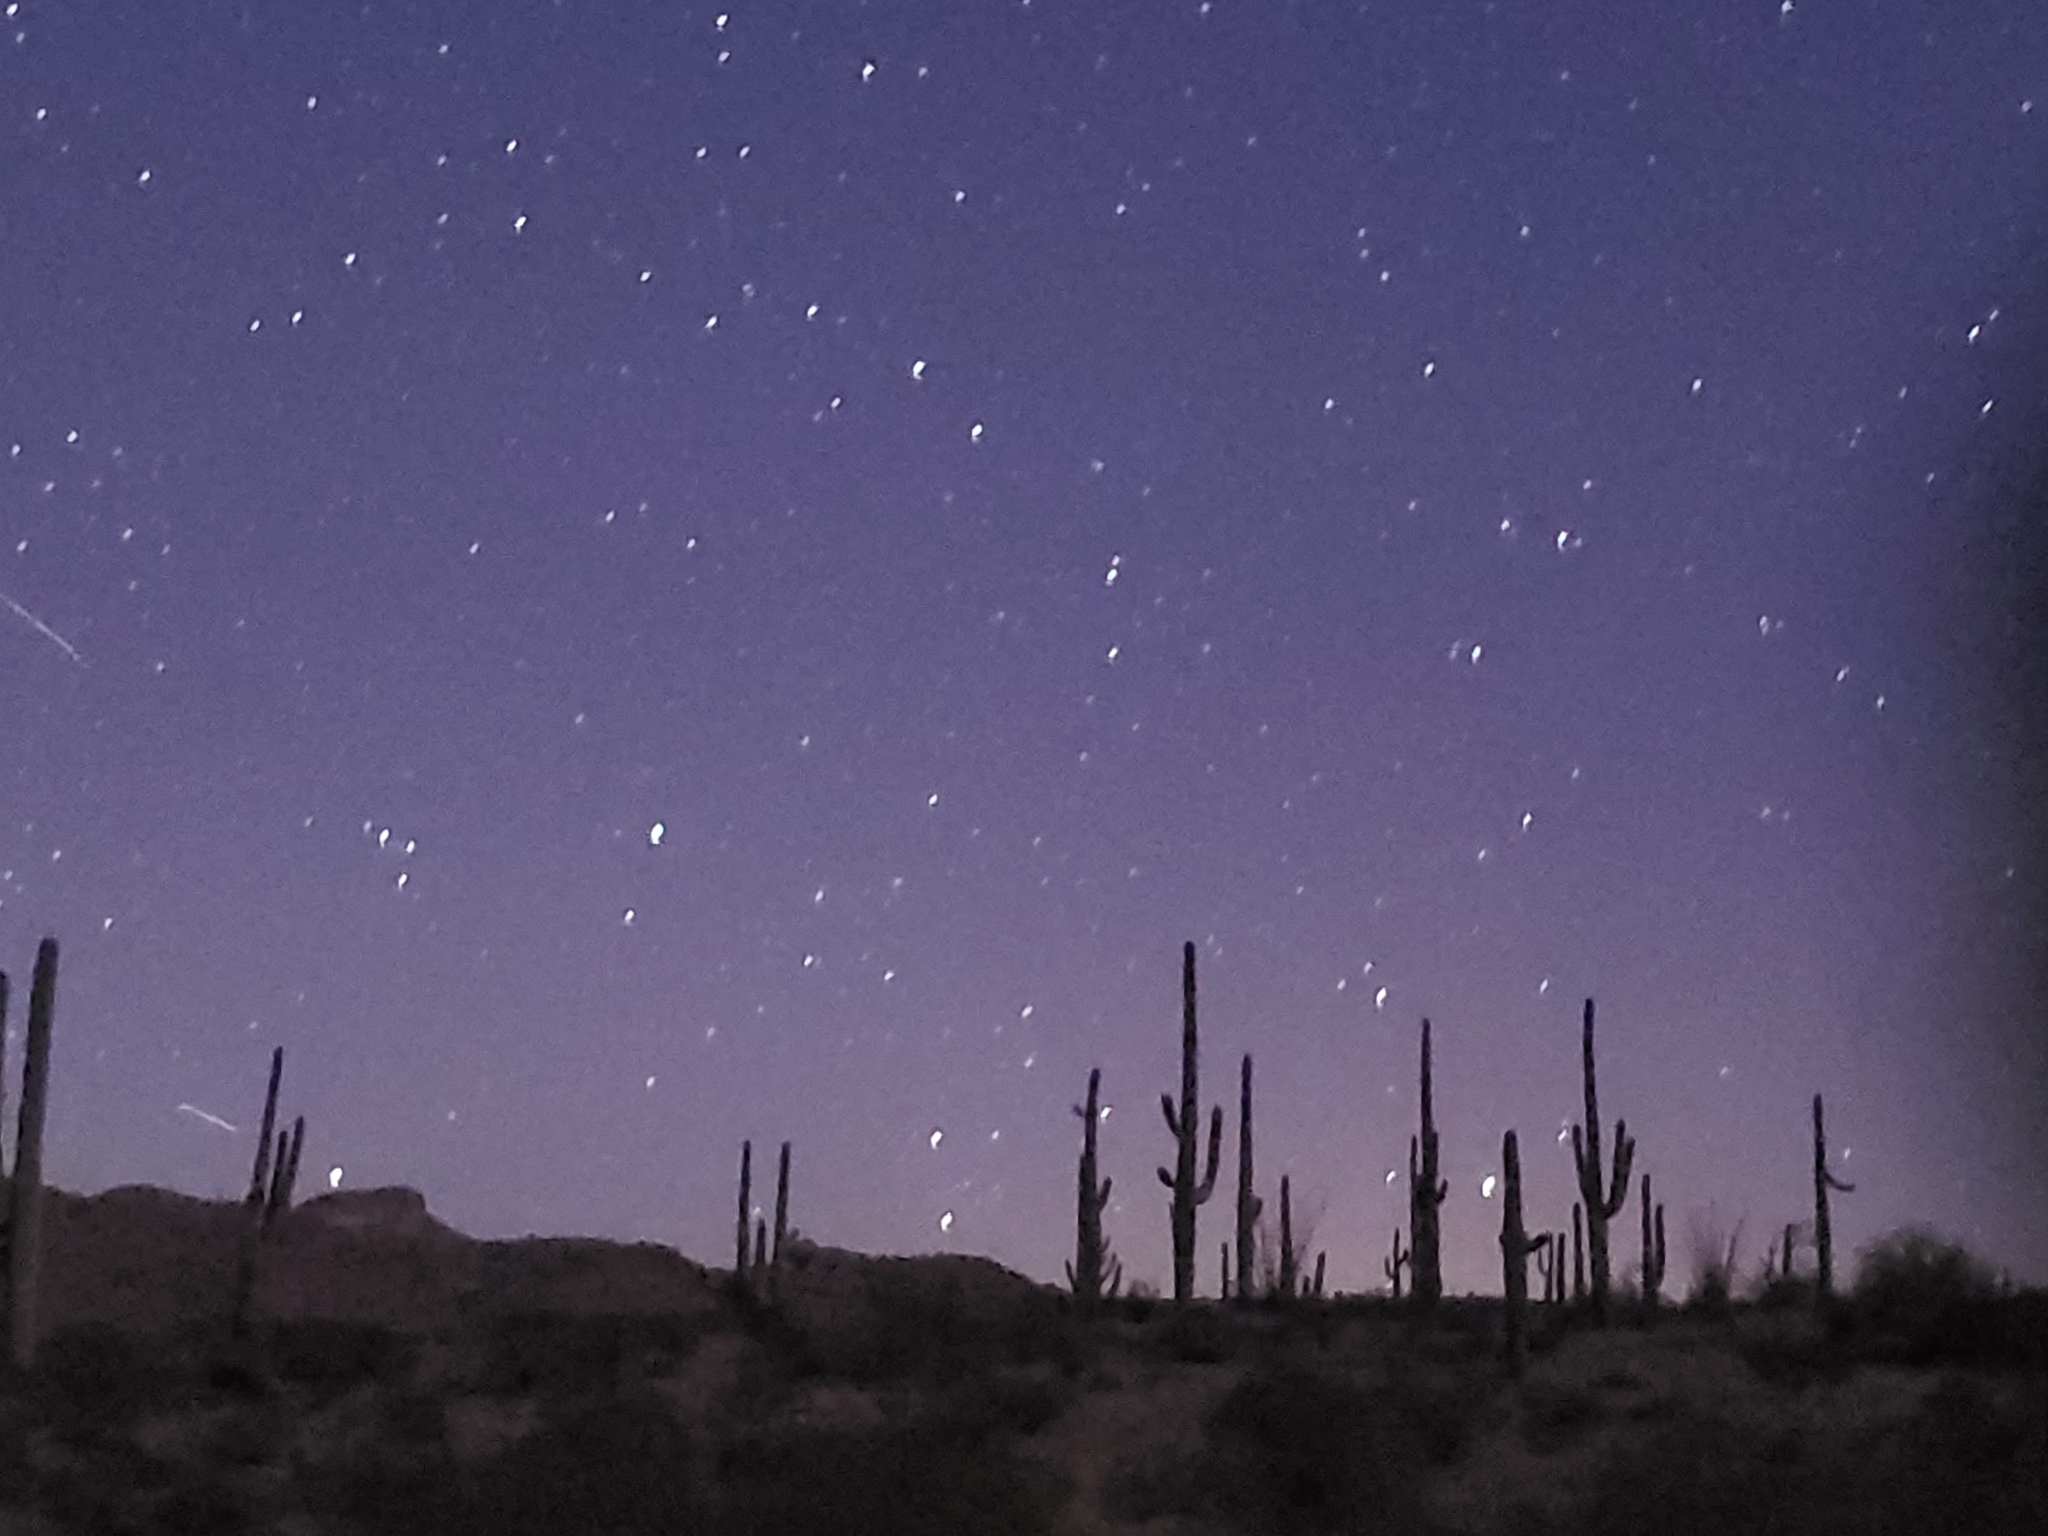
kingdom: Plantae
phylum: Tracheophyta
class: Magnoliopsida
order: Caryophyllales
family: Cactaceae
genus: Carnegiea
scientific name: Carnegiea gigantea
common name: Saguaro
